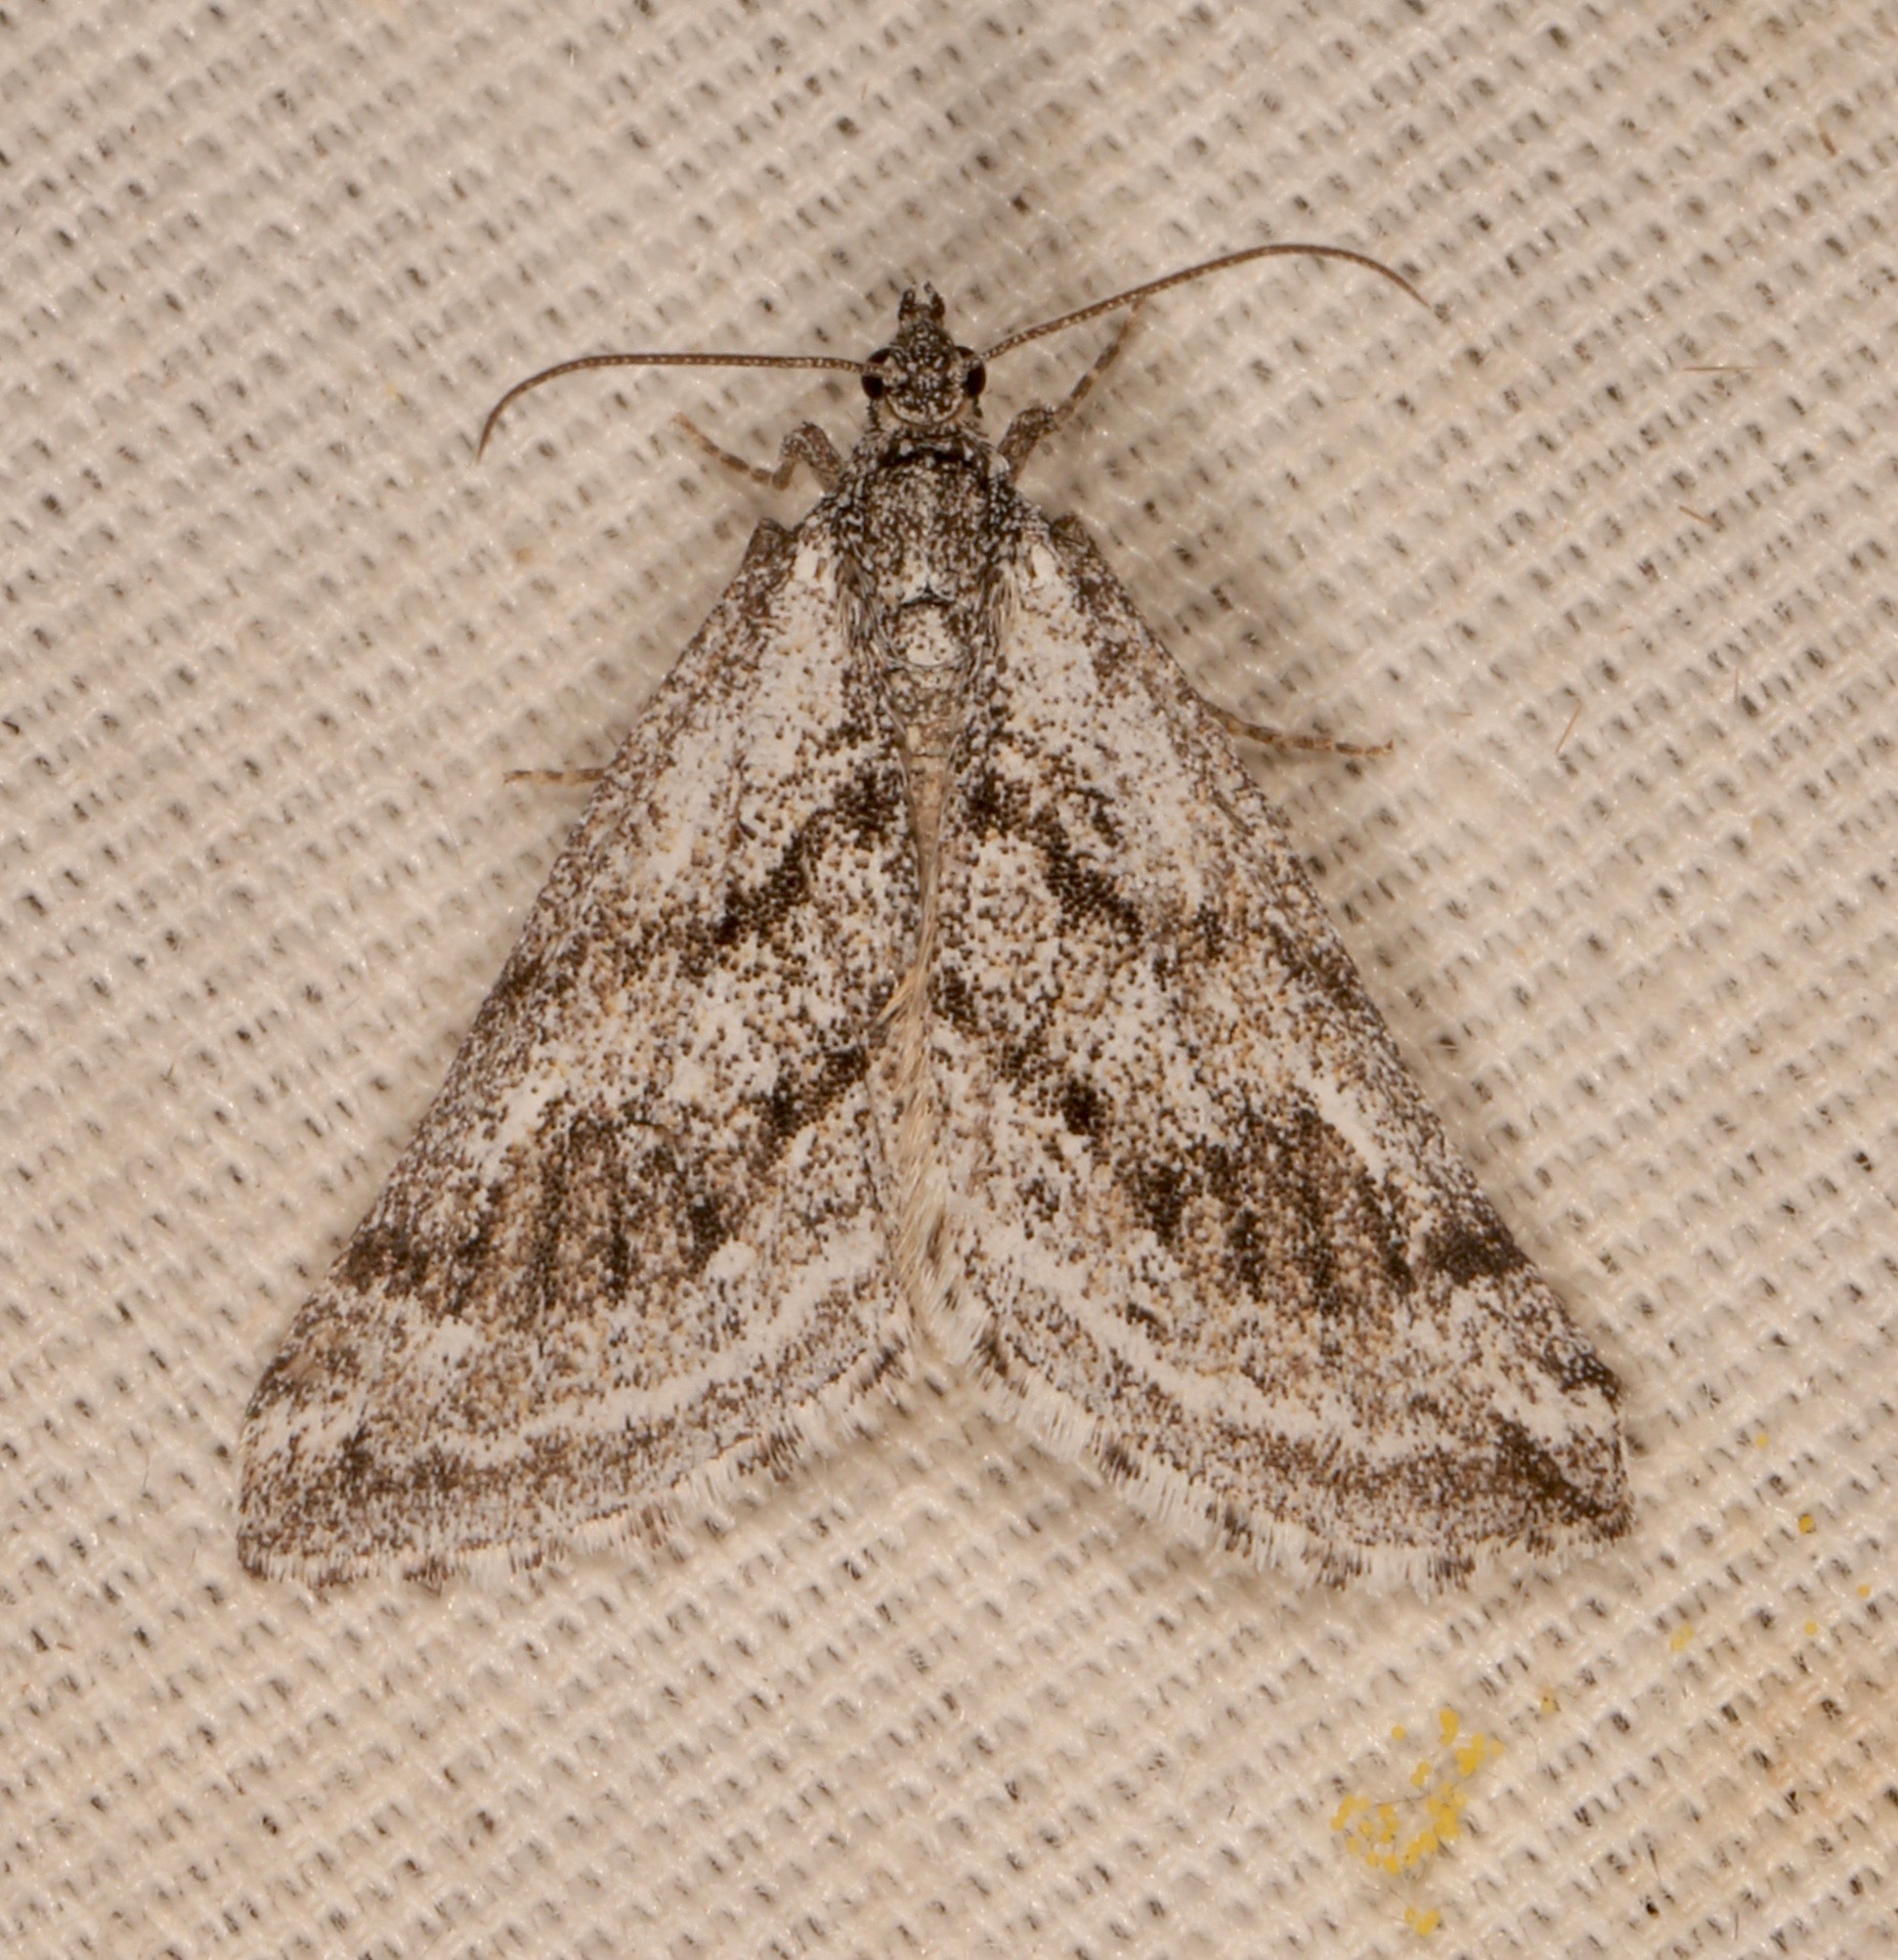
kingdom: Animalia
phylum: Arthropoda
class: Insecta
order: Lepidoptera
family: Geometridae
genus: Scelidacantha
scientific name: Scelidacantha
